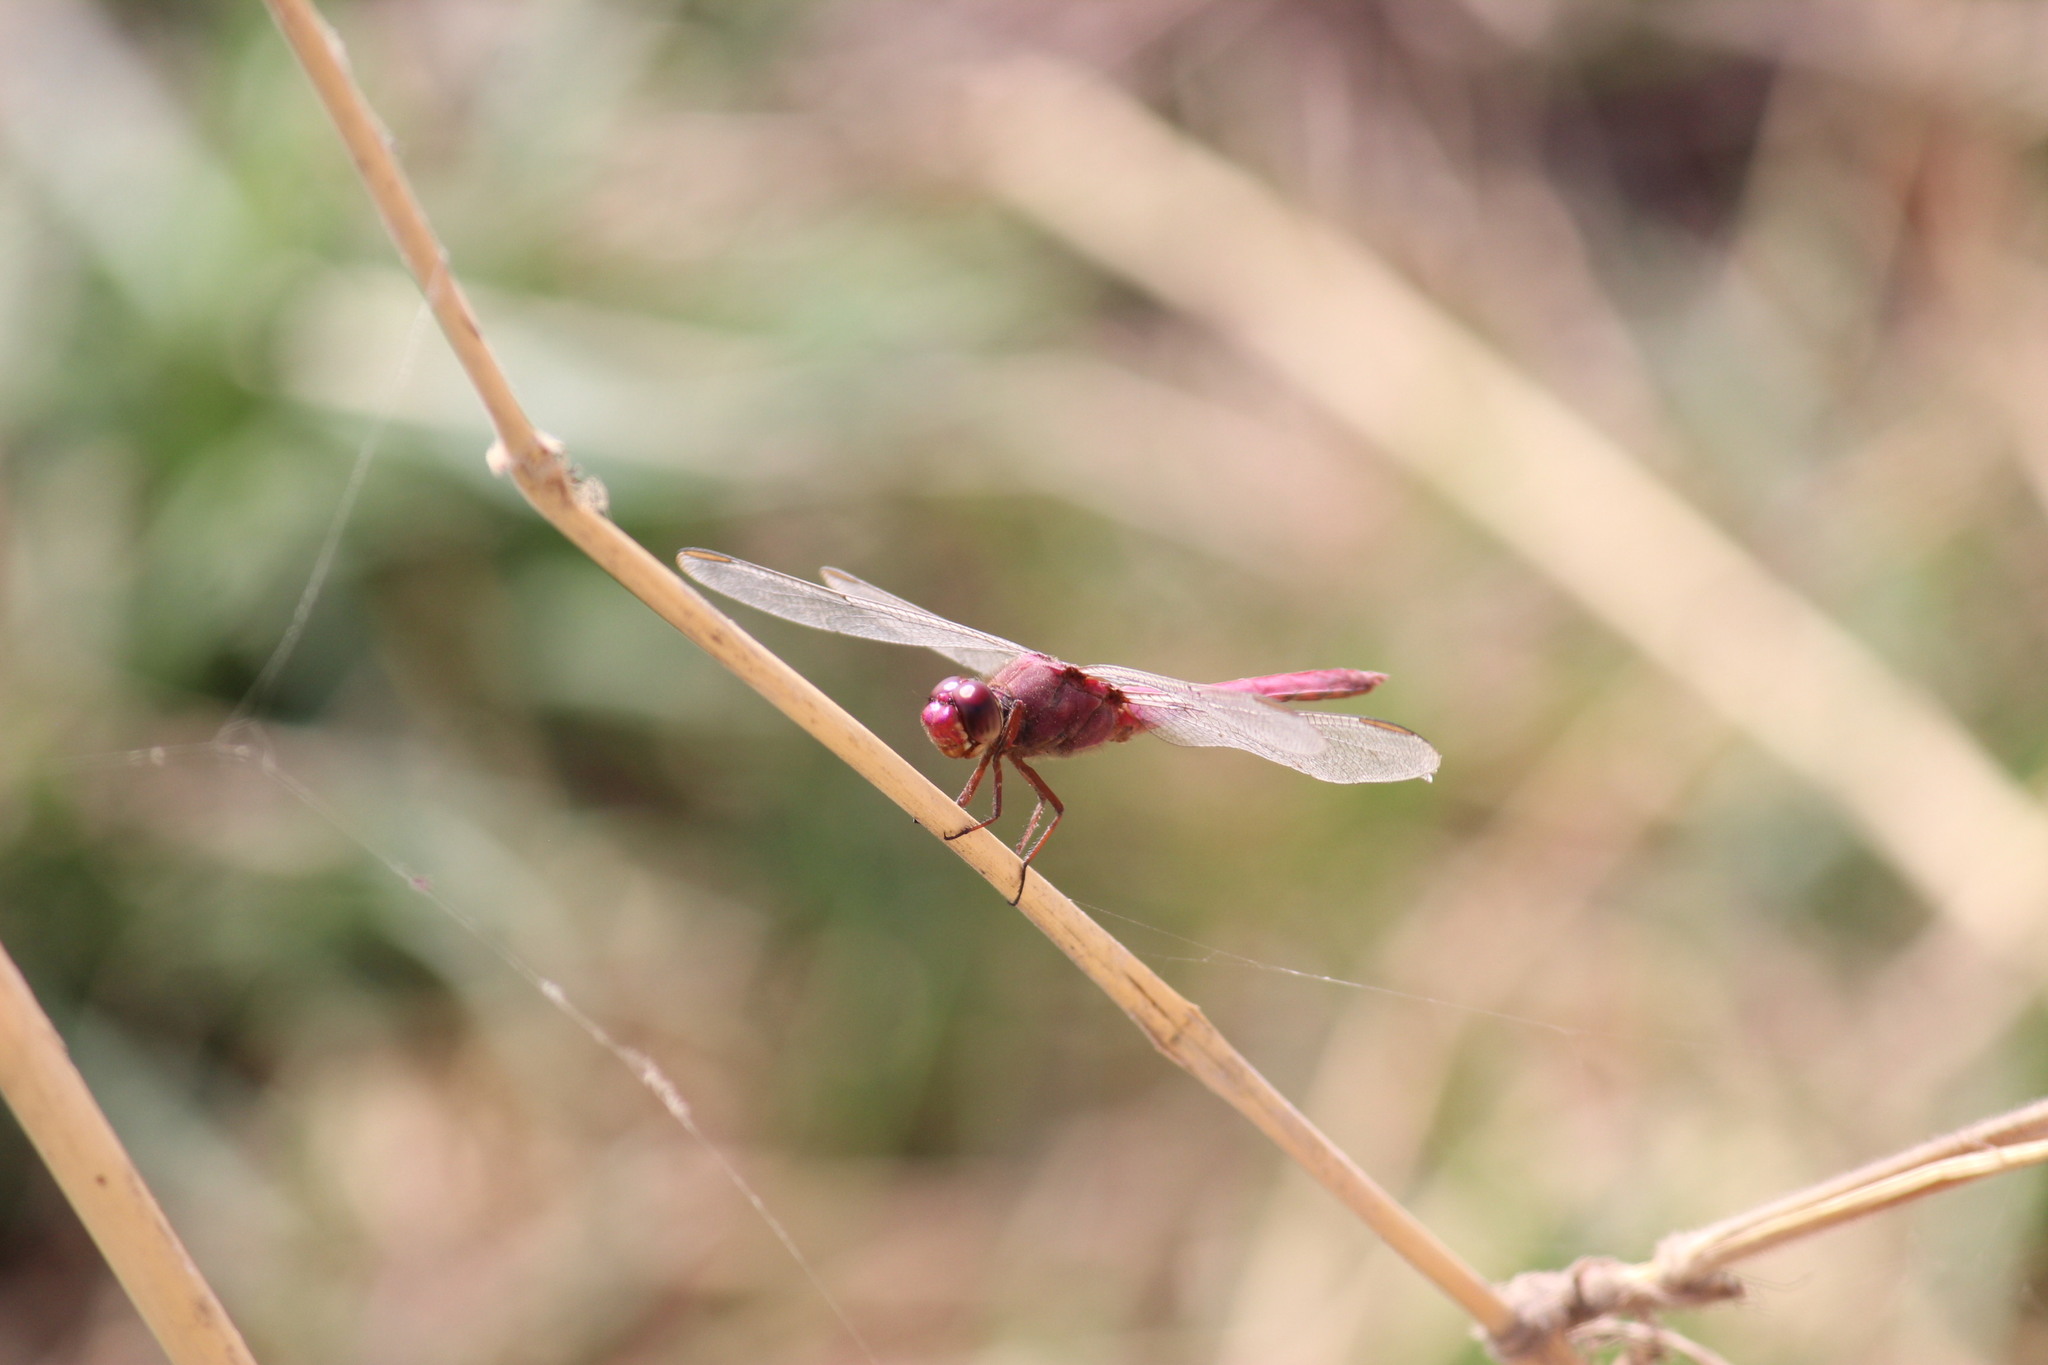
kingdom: Animalia
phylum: Arthropoda
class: Insecta
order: Odonata
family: Libellulidae
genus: Orthemis
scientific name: Orthemis discolor
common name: Carmine skimmer
